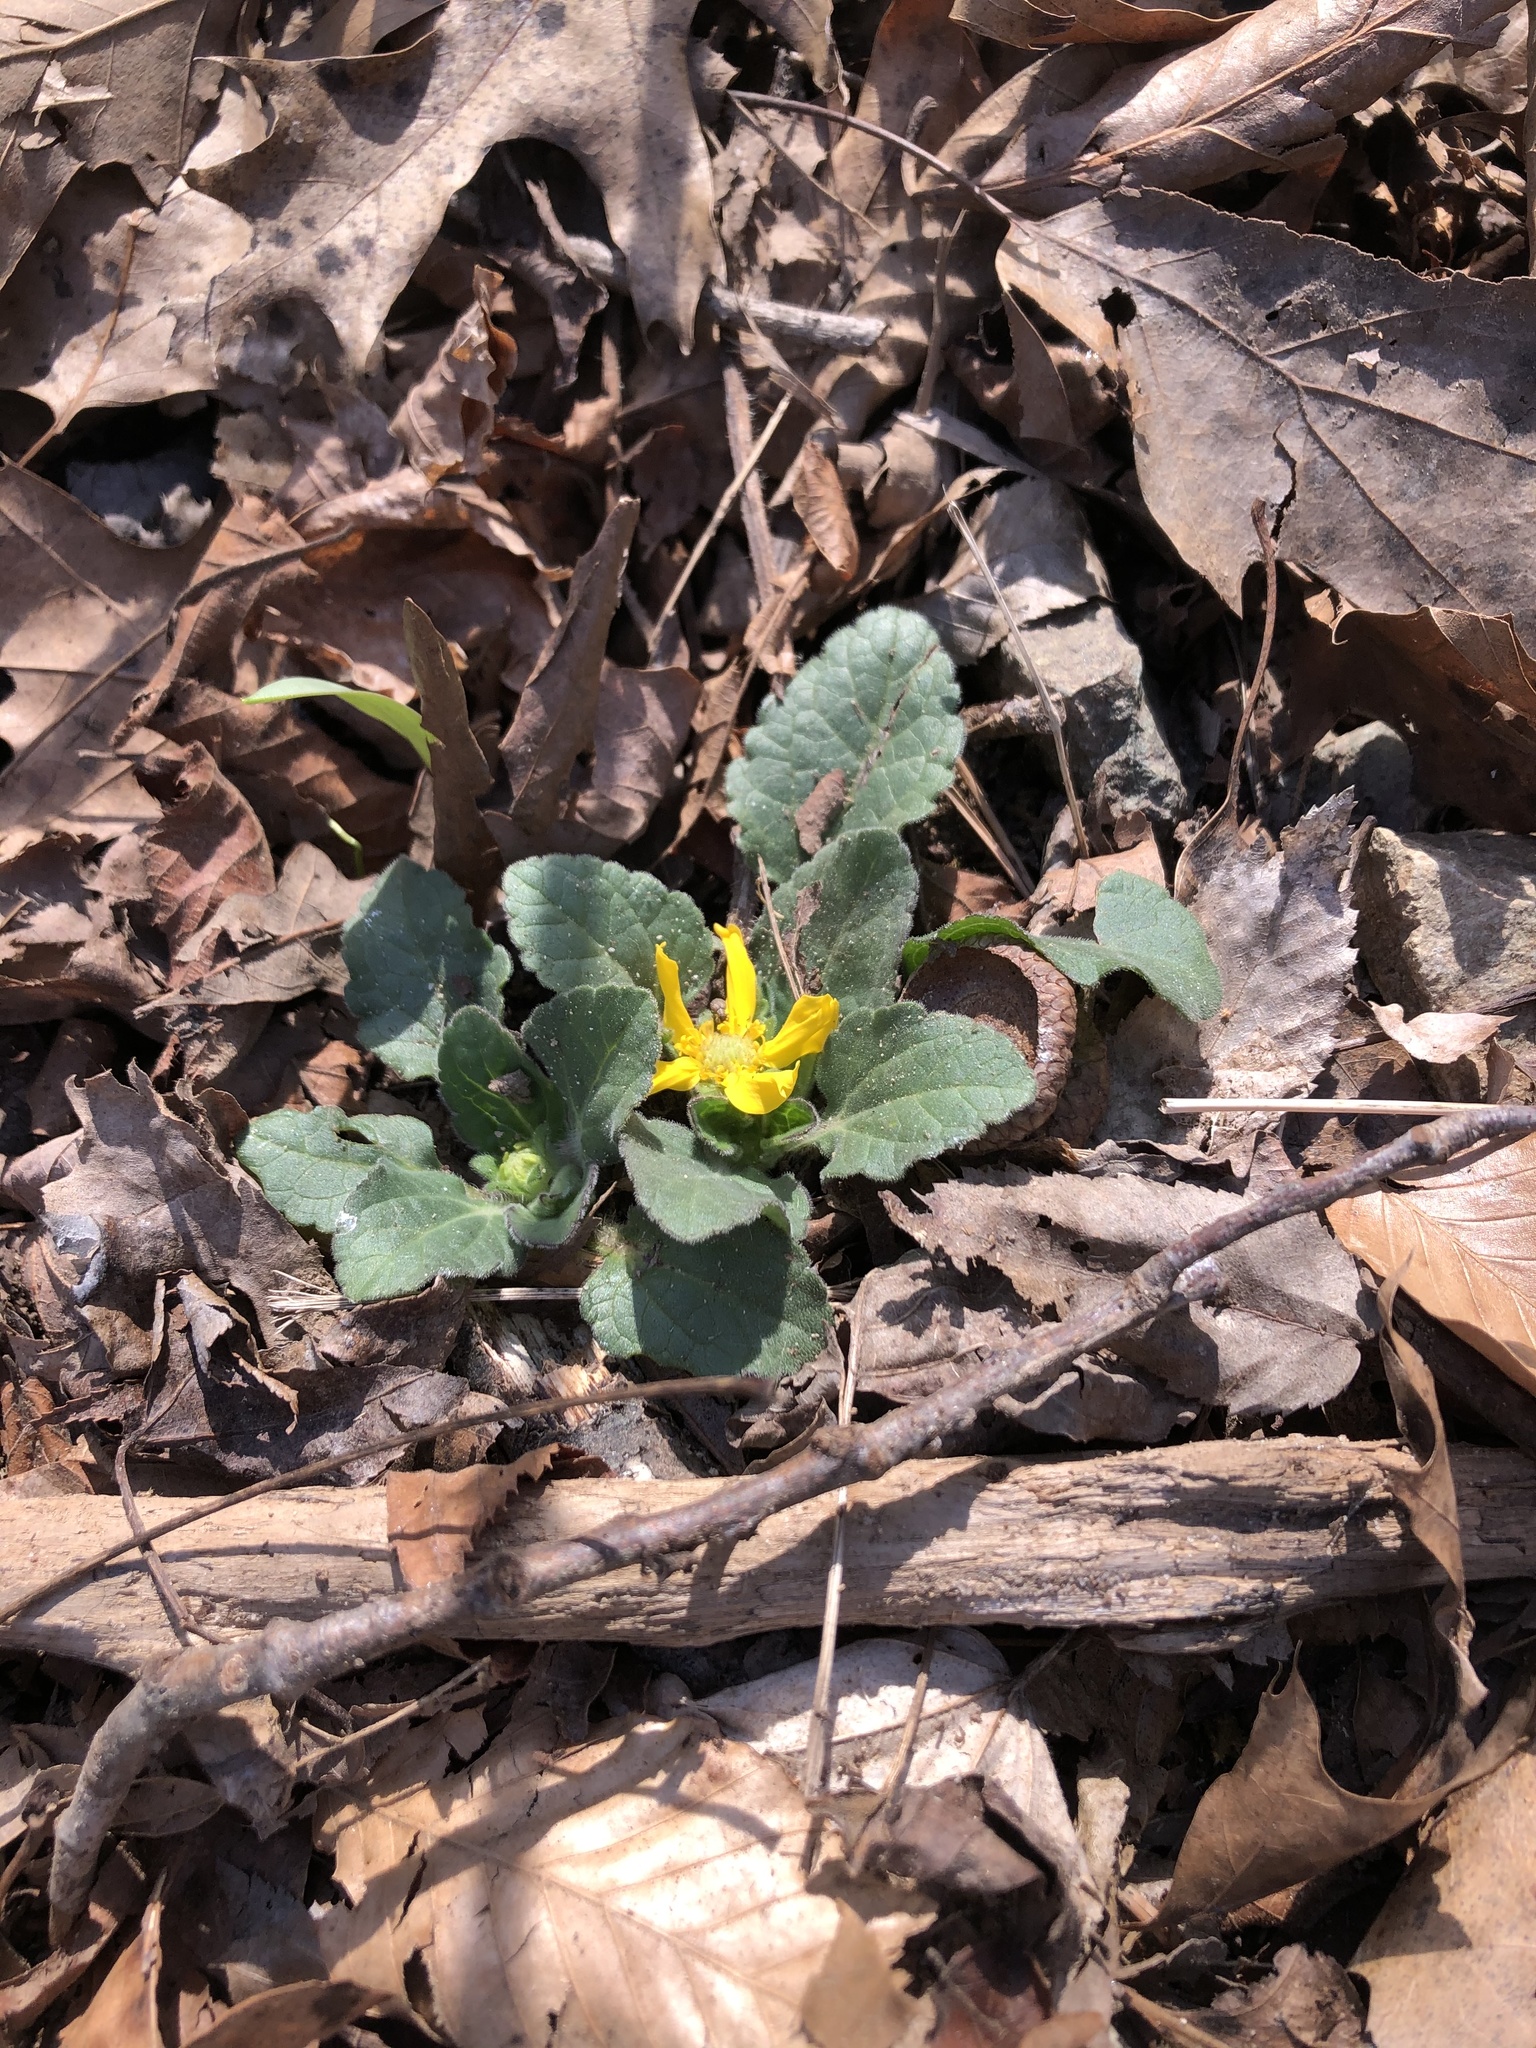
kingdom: Plantae
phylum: Tracheophyta
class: Magnoliopsida
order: Asterales
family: Asteraceae
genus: Chrysogonum
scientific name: Chrysogonum virginianum
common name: Golden-knee
